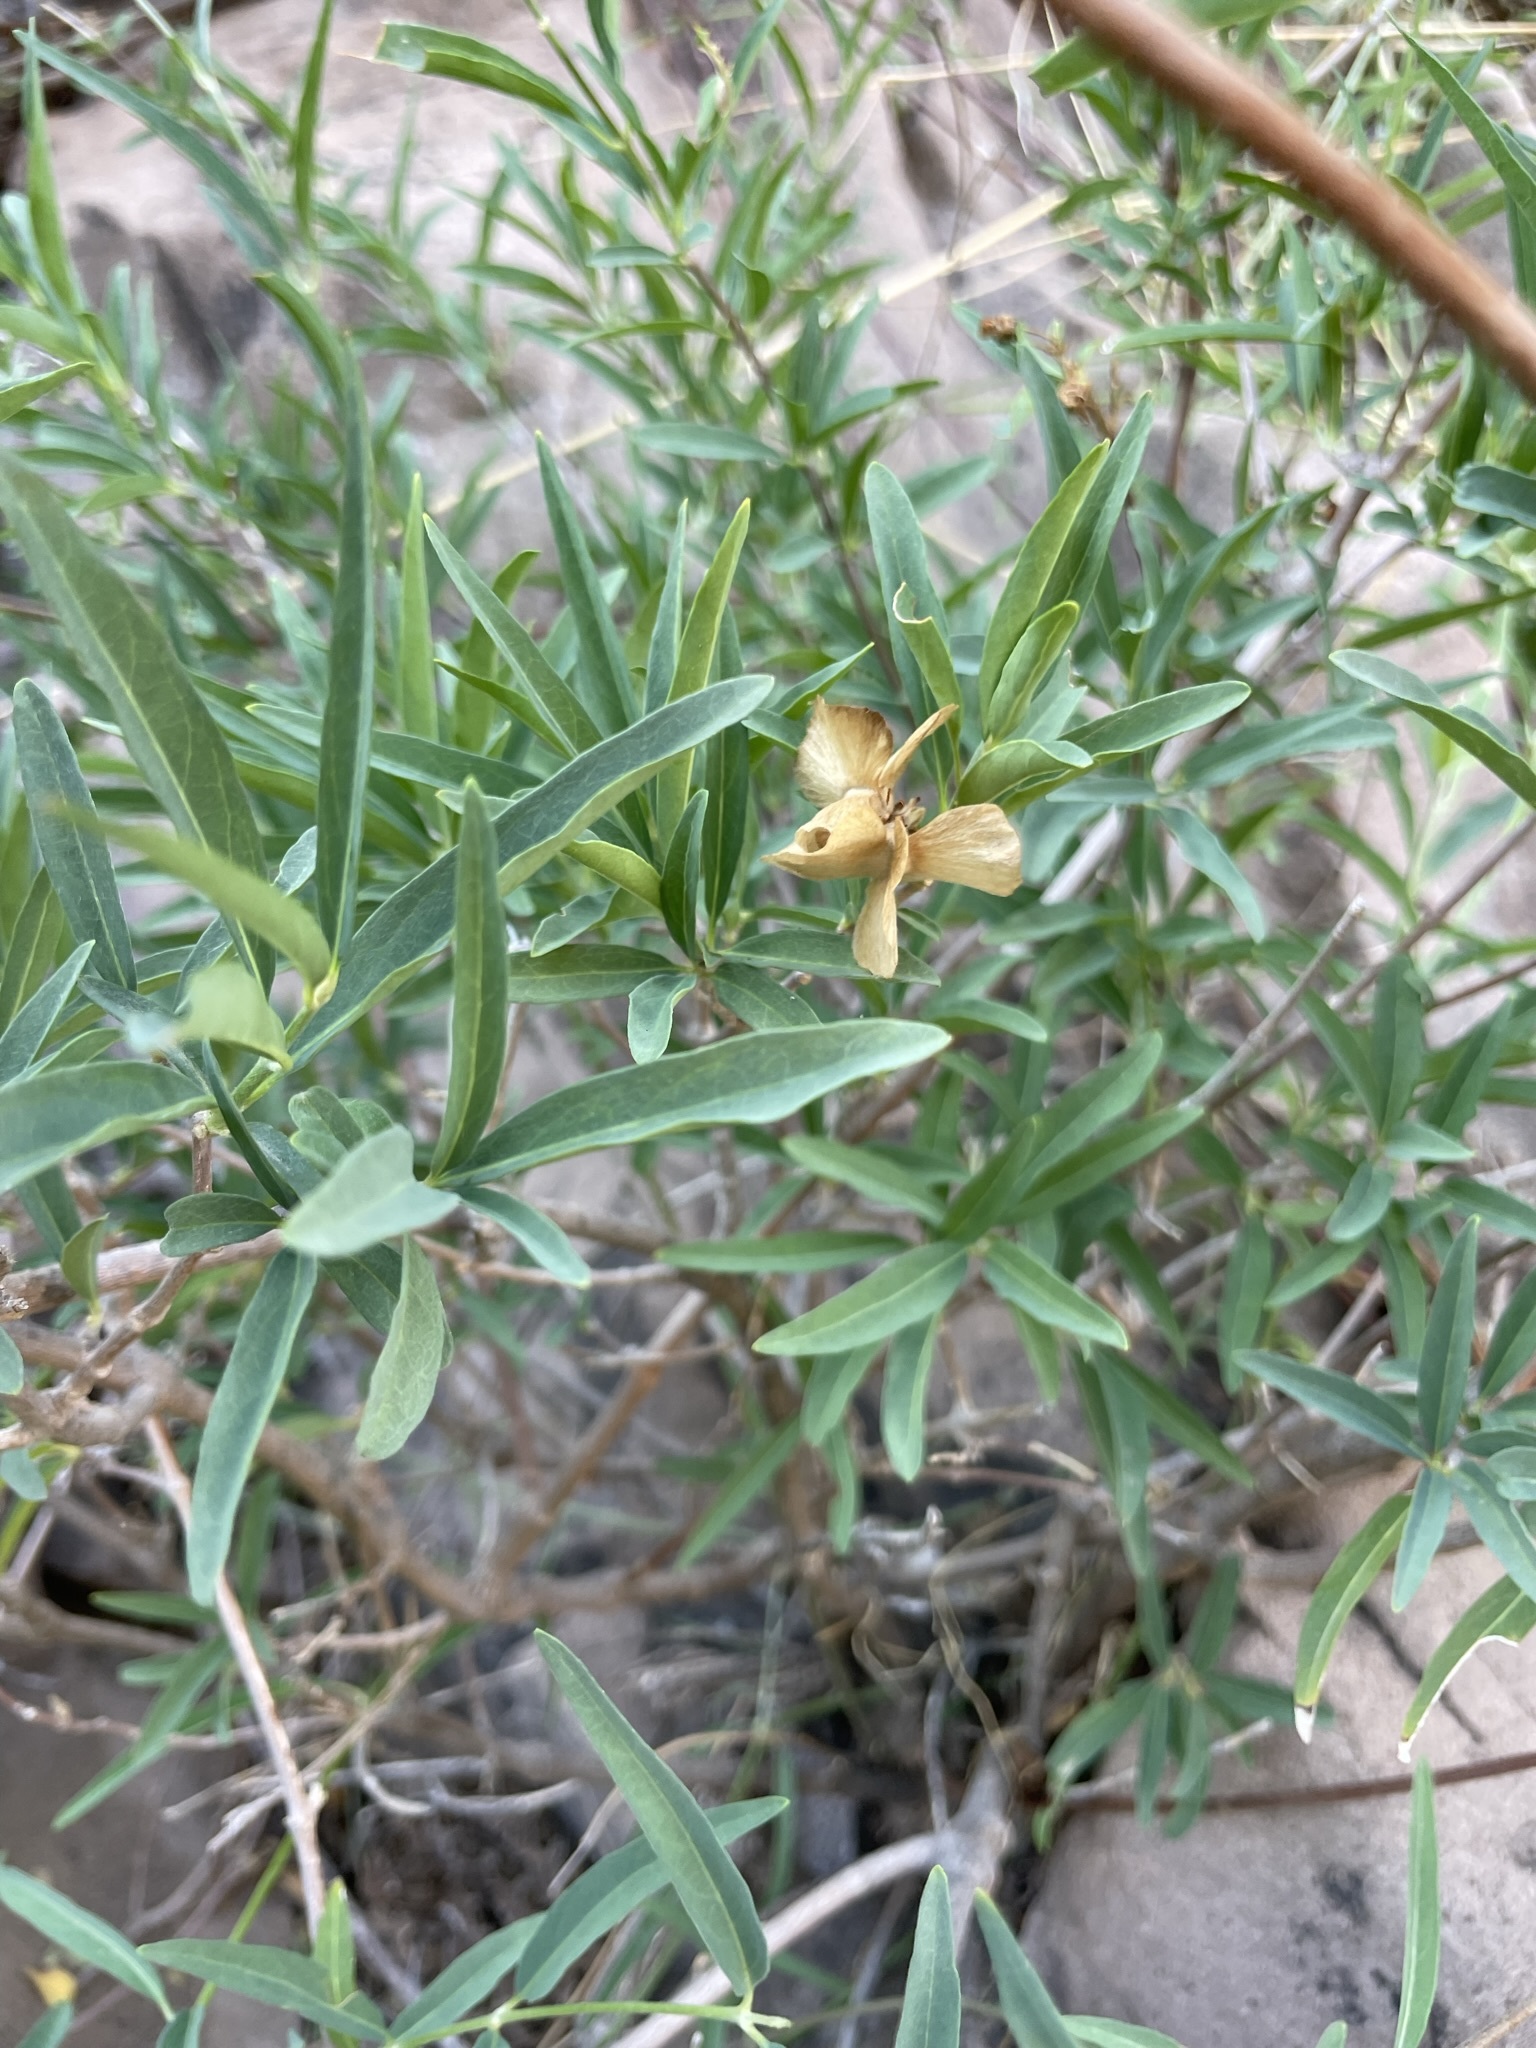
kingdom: Plantae
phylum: Tracheophyta
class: Magnoliopsida
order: Malpighiales
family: Malpighiaceae
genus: Callaeum
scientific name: Callaeum macropterum
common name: Mexican butterfly-vine
